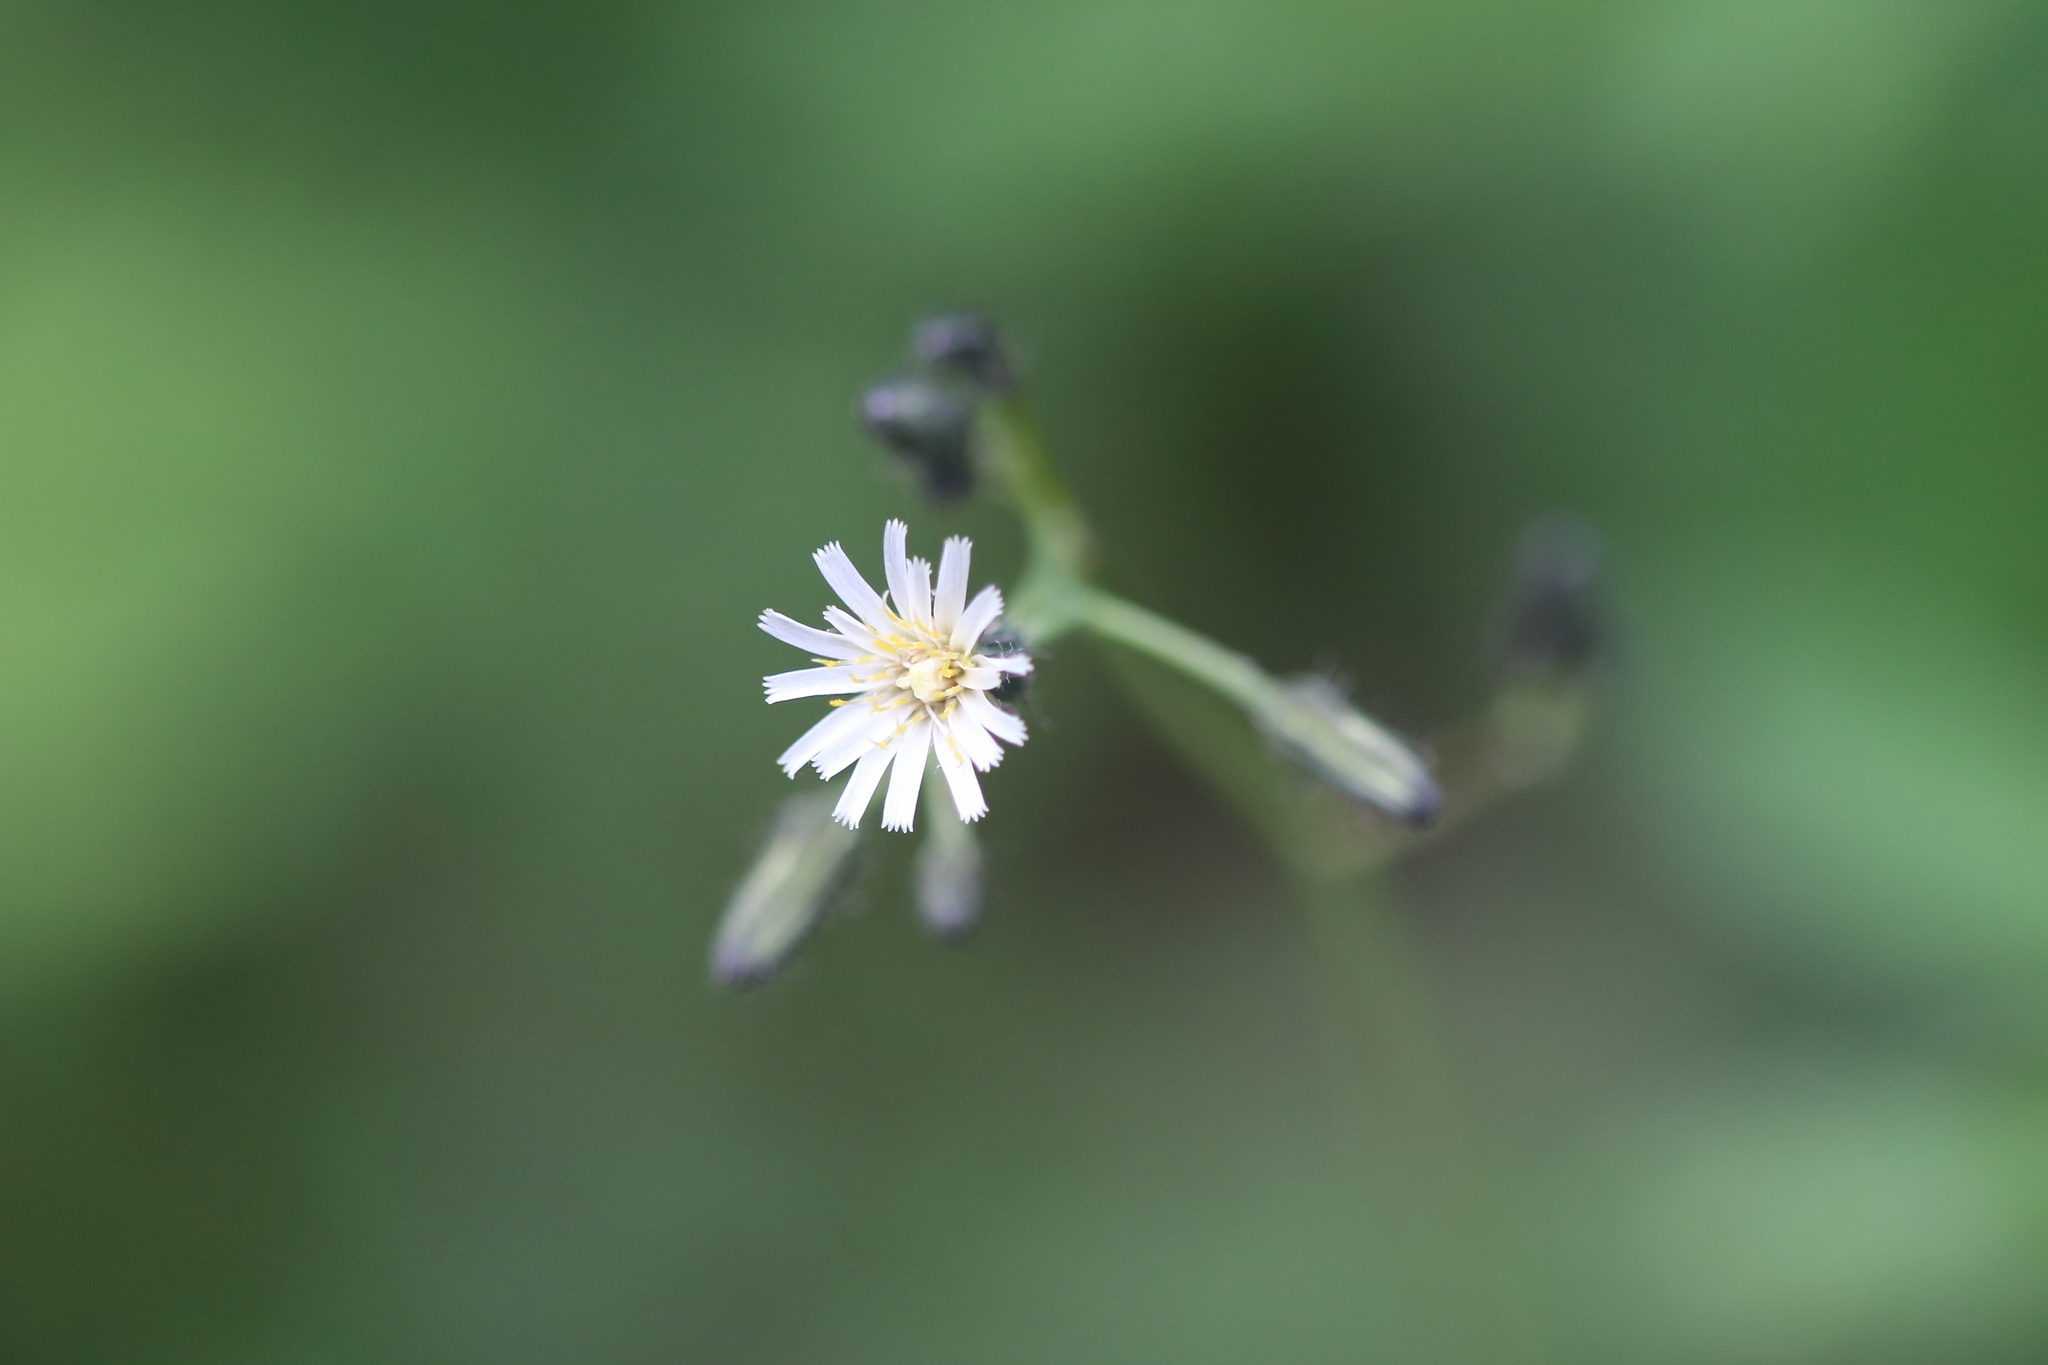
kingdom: Plantae
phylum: Tracheophyta
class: Magnoliopsida
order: Asterales
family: Asteraceae
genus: Hieracium
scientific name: Hieracium albiflorum
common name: White hawkweed
